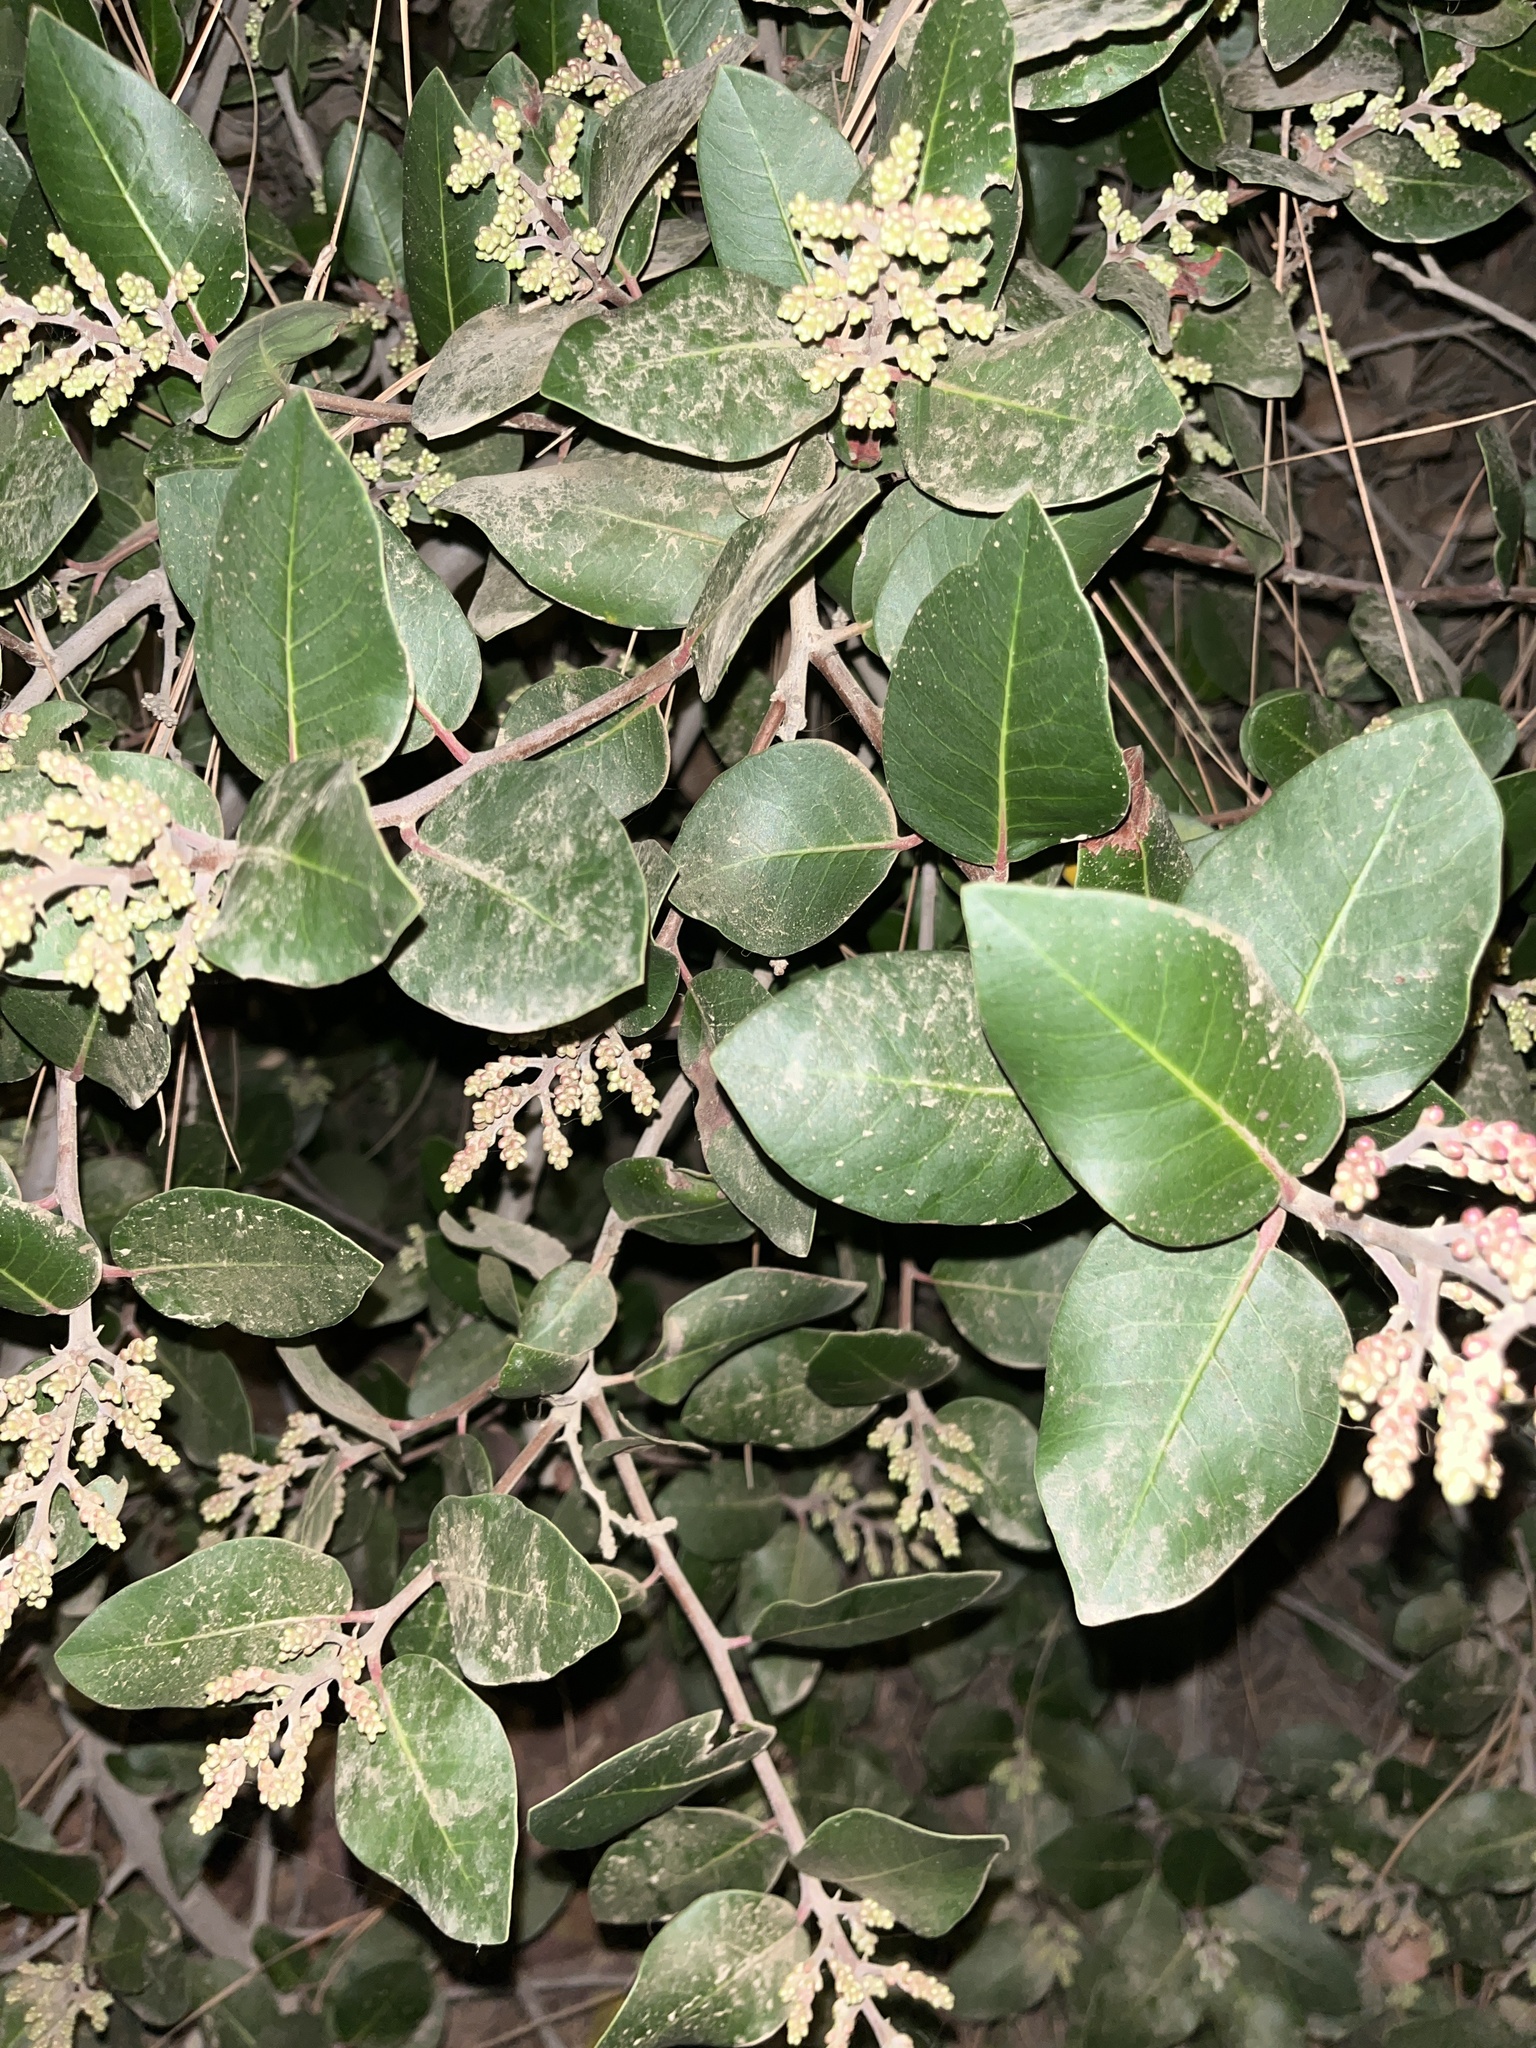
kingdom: Plantae
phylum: Tracheophyta
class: Magnoliopsida
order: Sapindales
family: Anacardiaceae
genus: Rhus
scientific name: Rhus
